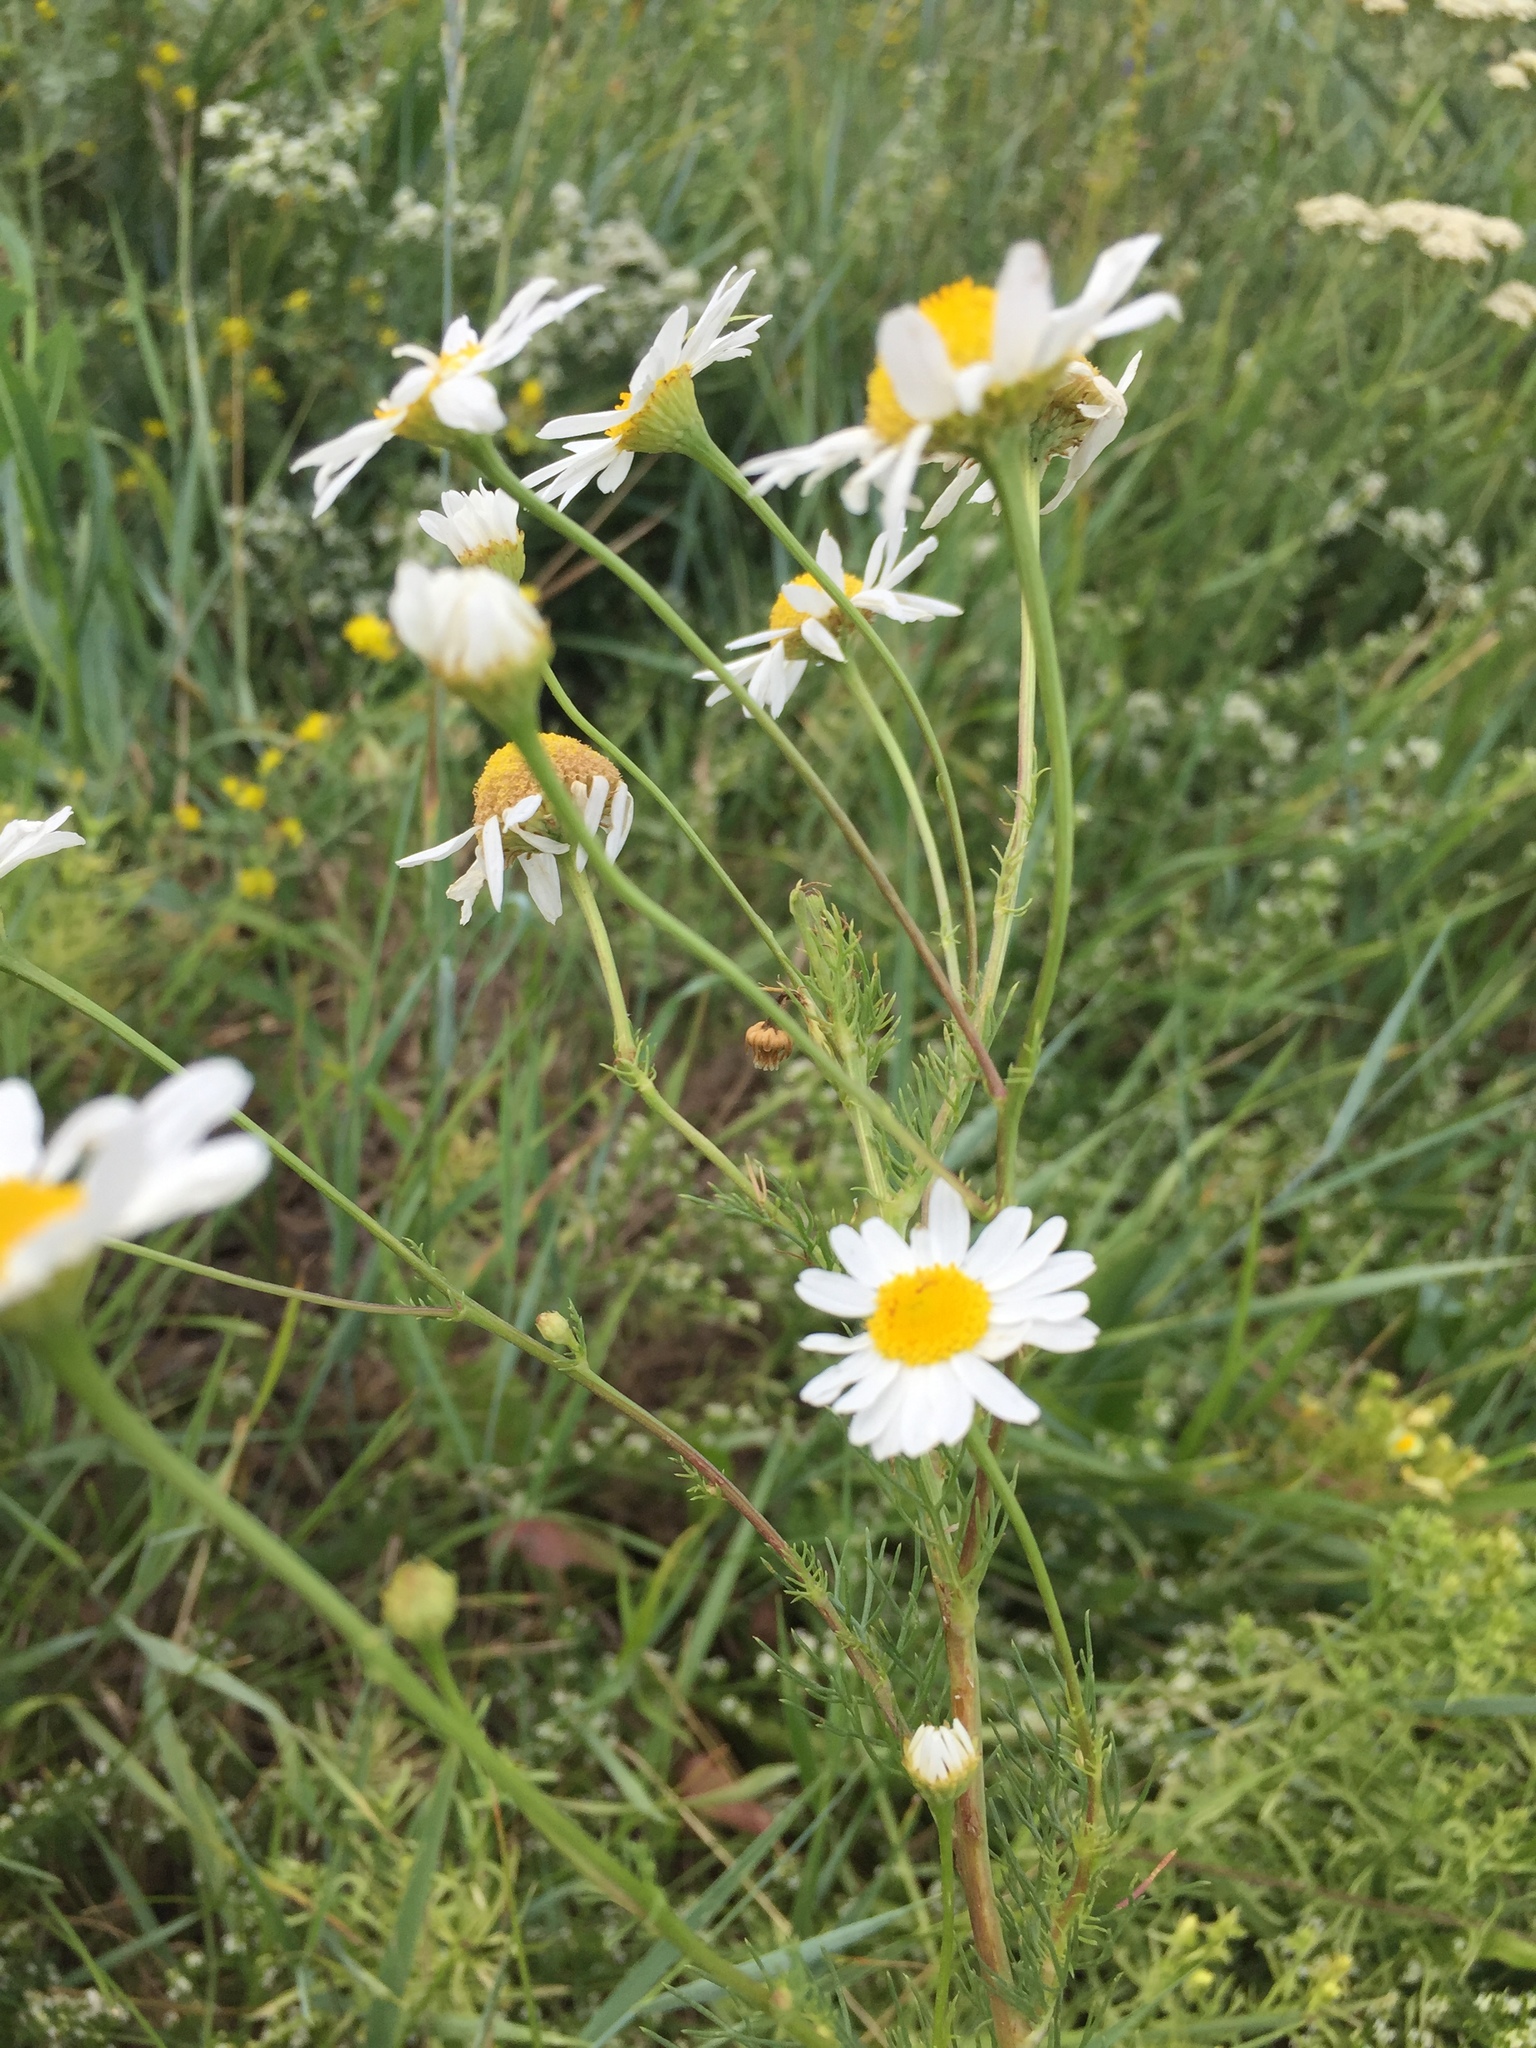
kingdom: Plantae
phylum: Tracheophyta
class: Magnoliopsida
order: Asterales
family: Asteraceae
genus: Tripleurospermum
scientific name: Tripleurospermum inodorum
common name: Scentless mayweed
